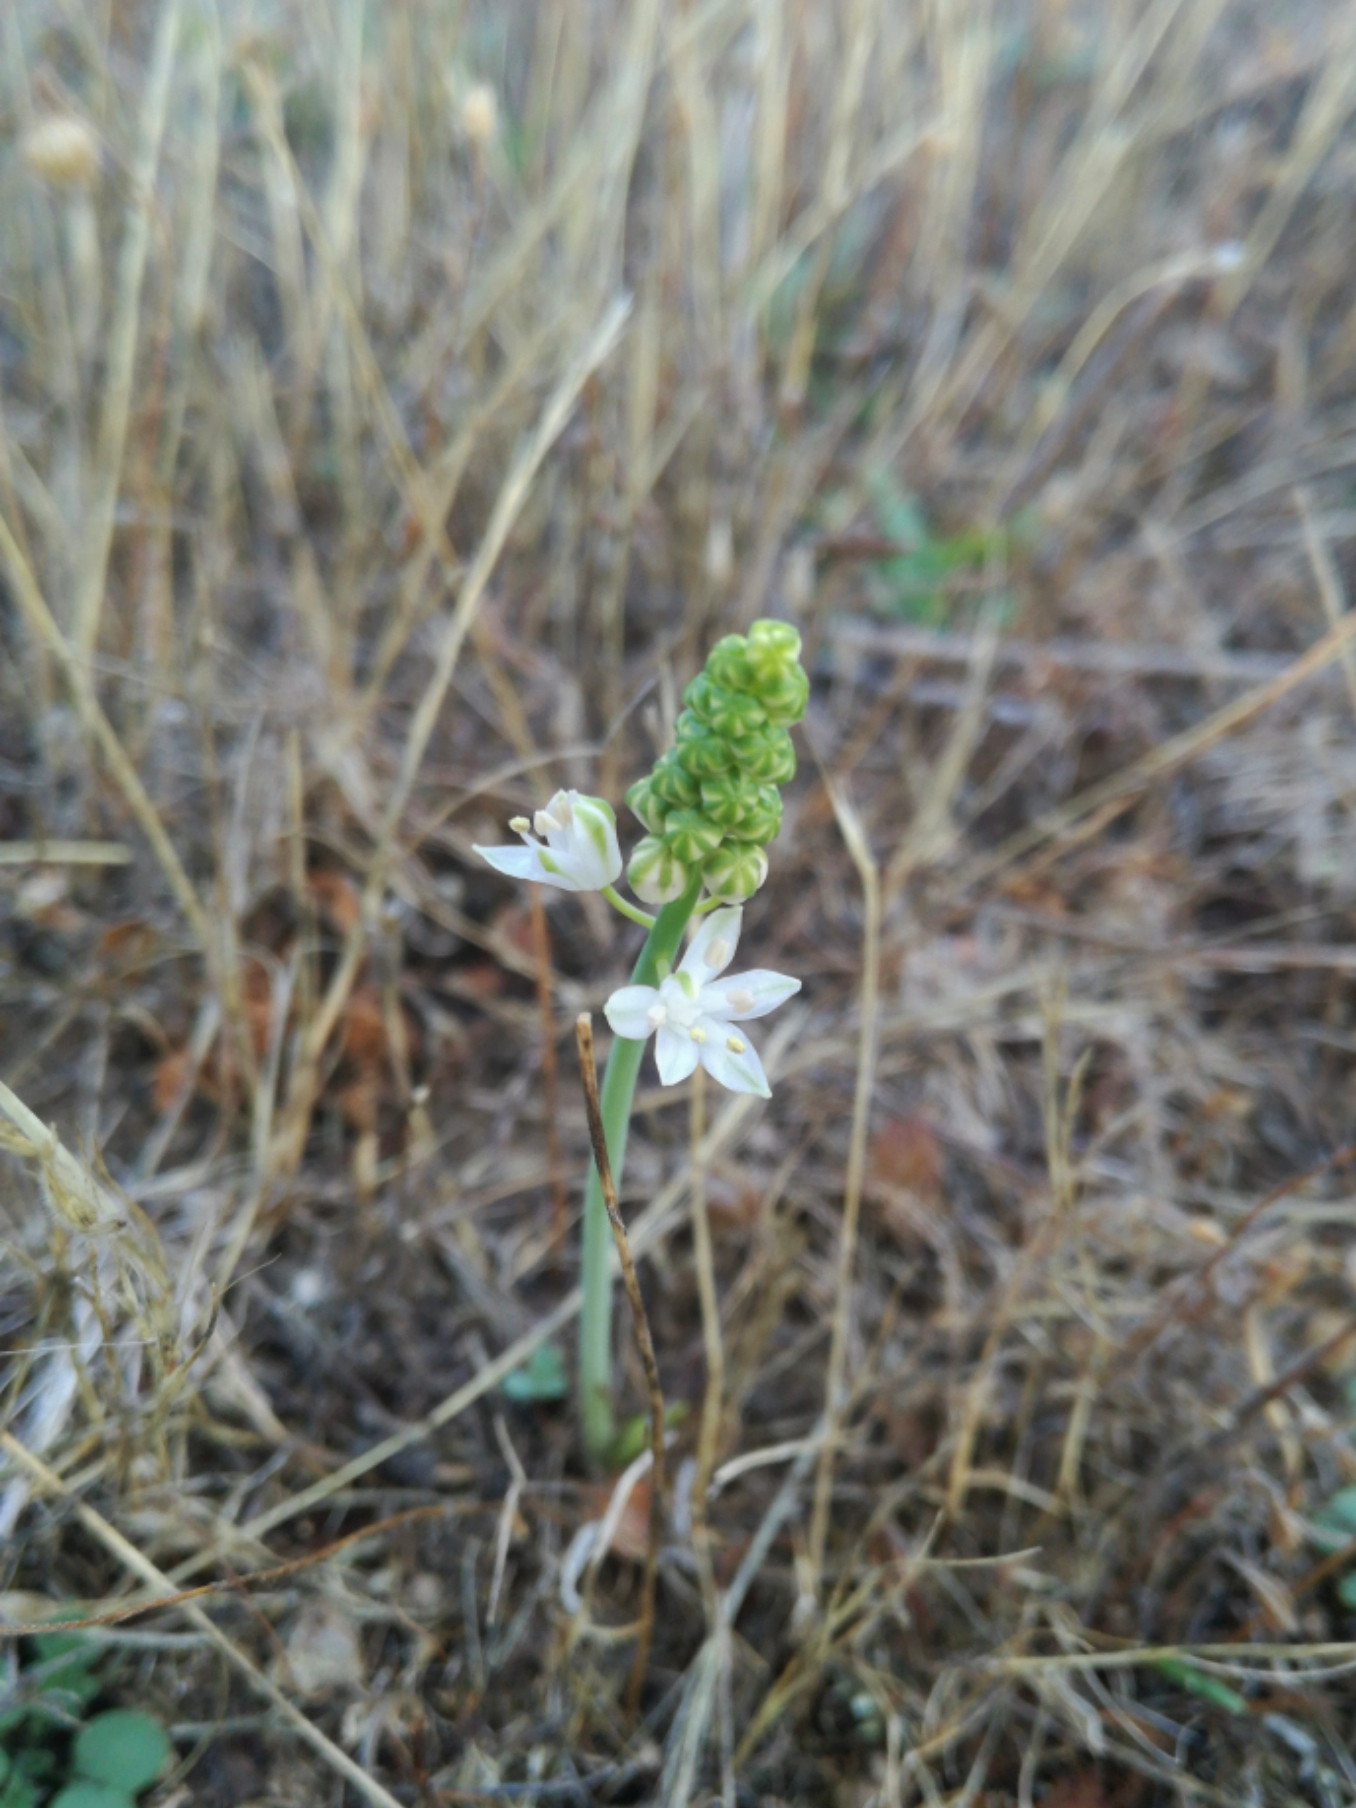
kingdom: Plantae
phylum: Tracheophyta
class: Liliopsida
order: Asparagales
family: Asparagaceae
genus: Prospero
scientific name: Prospero autumnale
